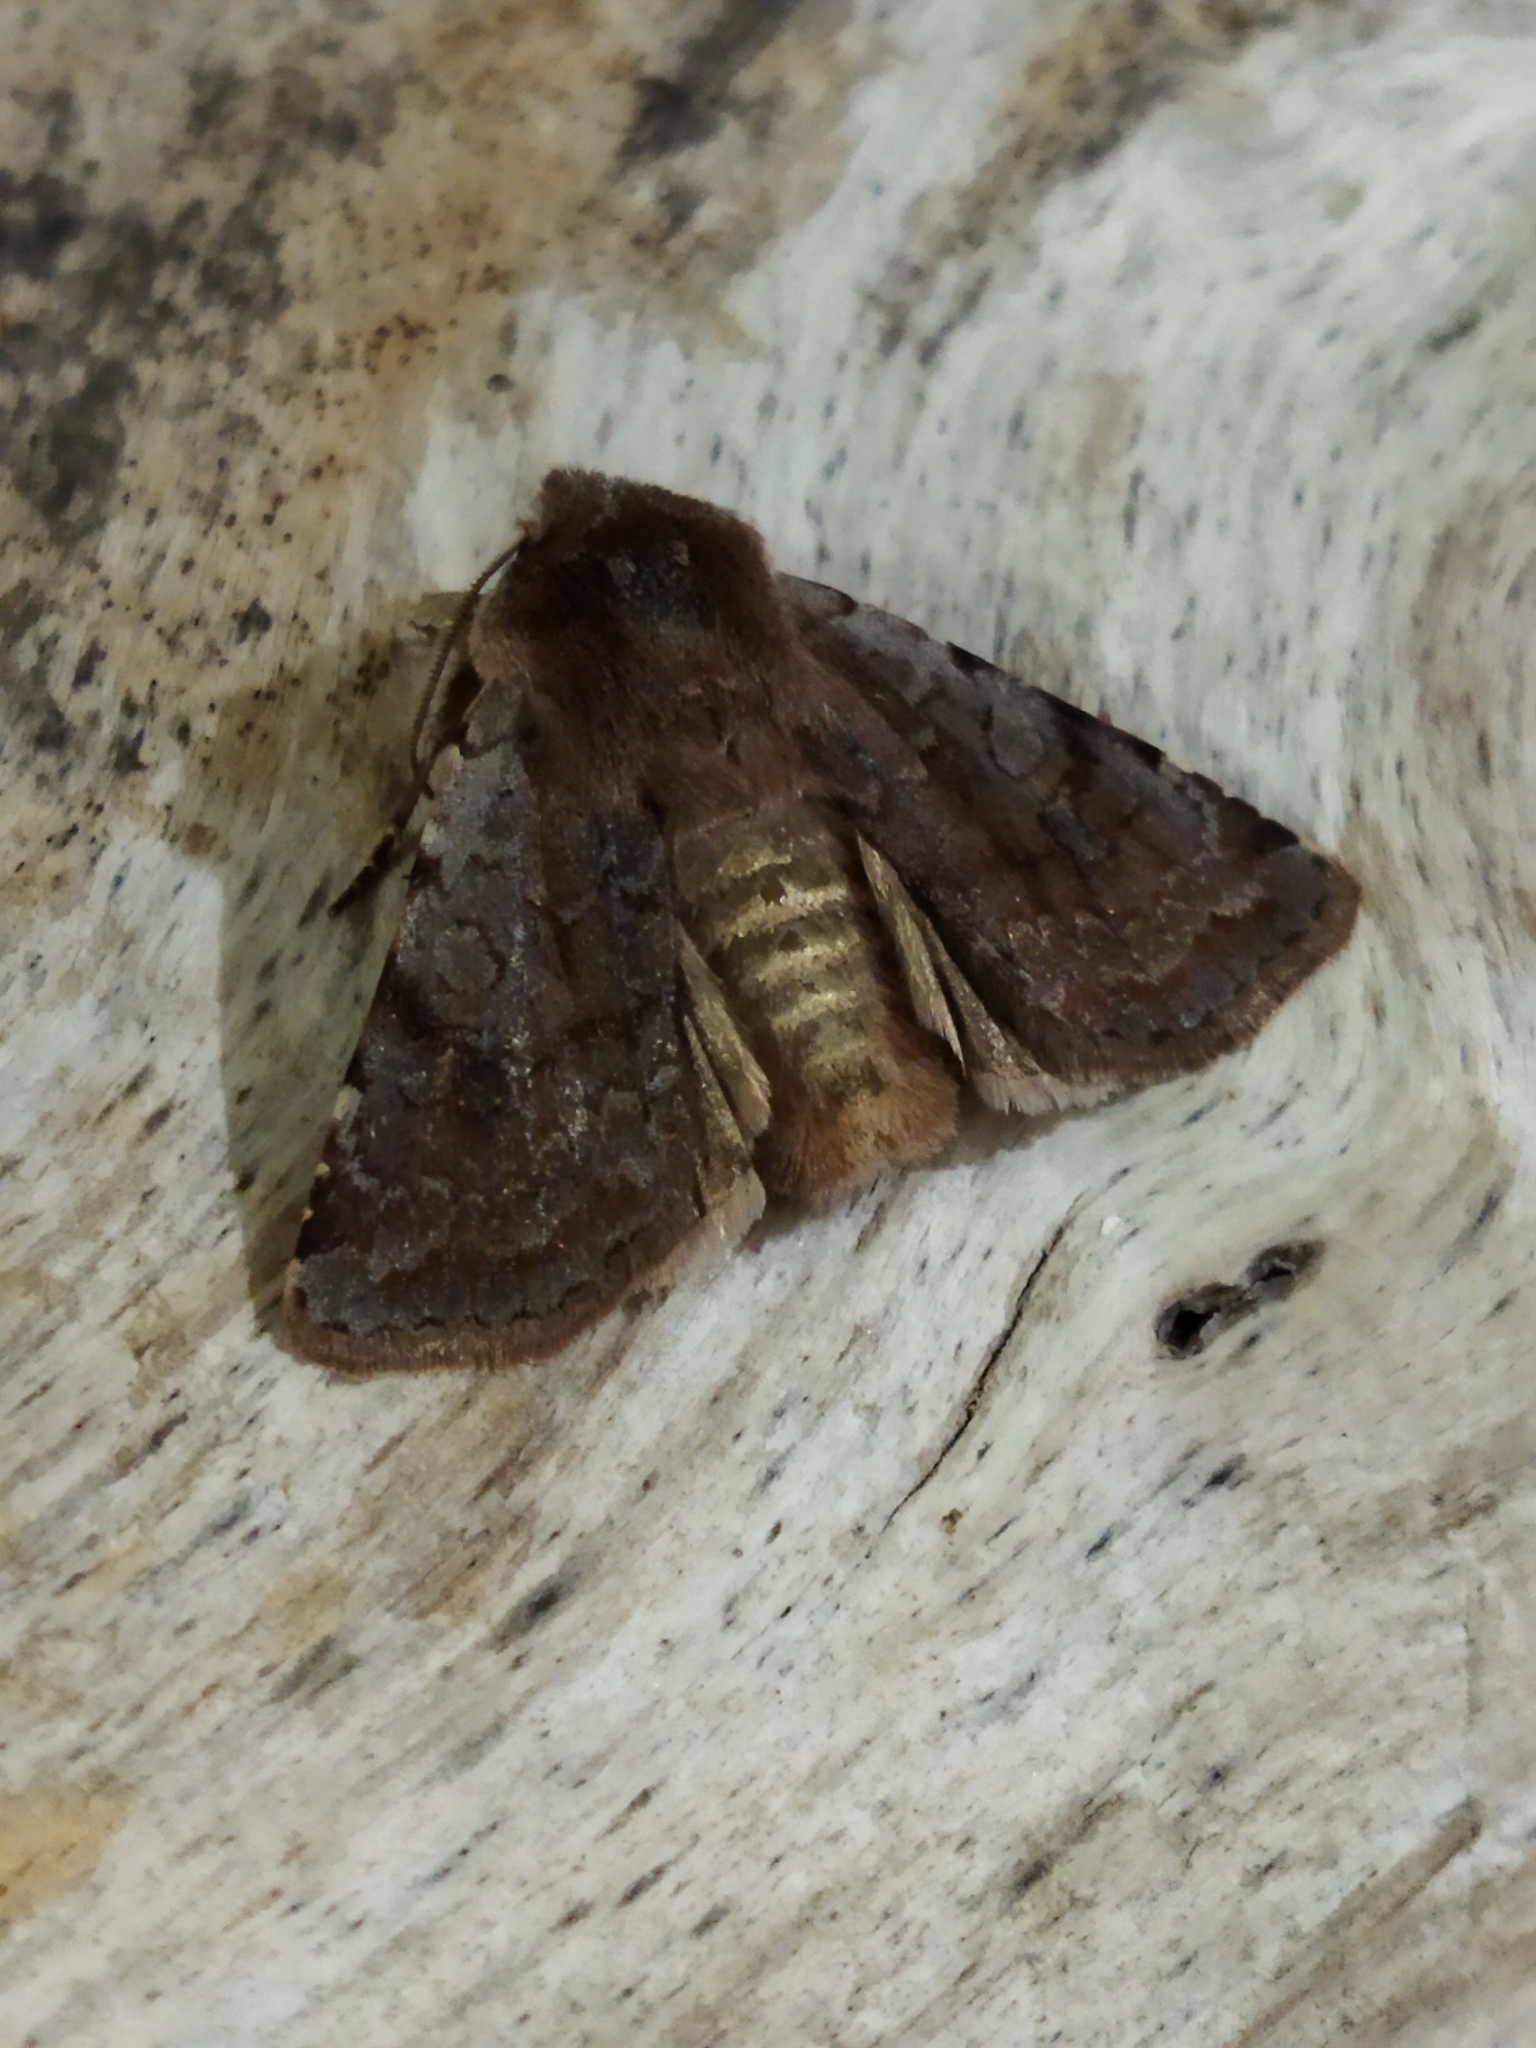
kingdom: Animalia
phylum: Arthropoda
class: Insecta
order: Lepidoptera
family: Noctuidae
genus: Cerastis
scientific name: Cerastis rubricosa
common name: Red chestnut
